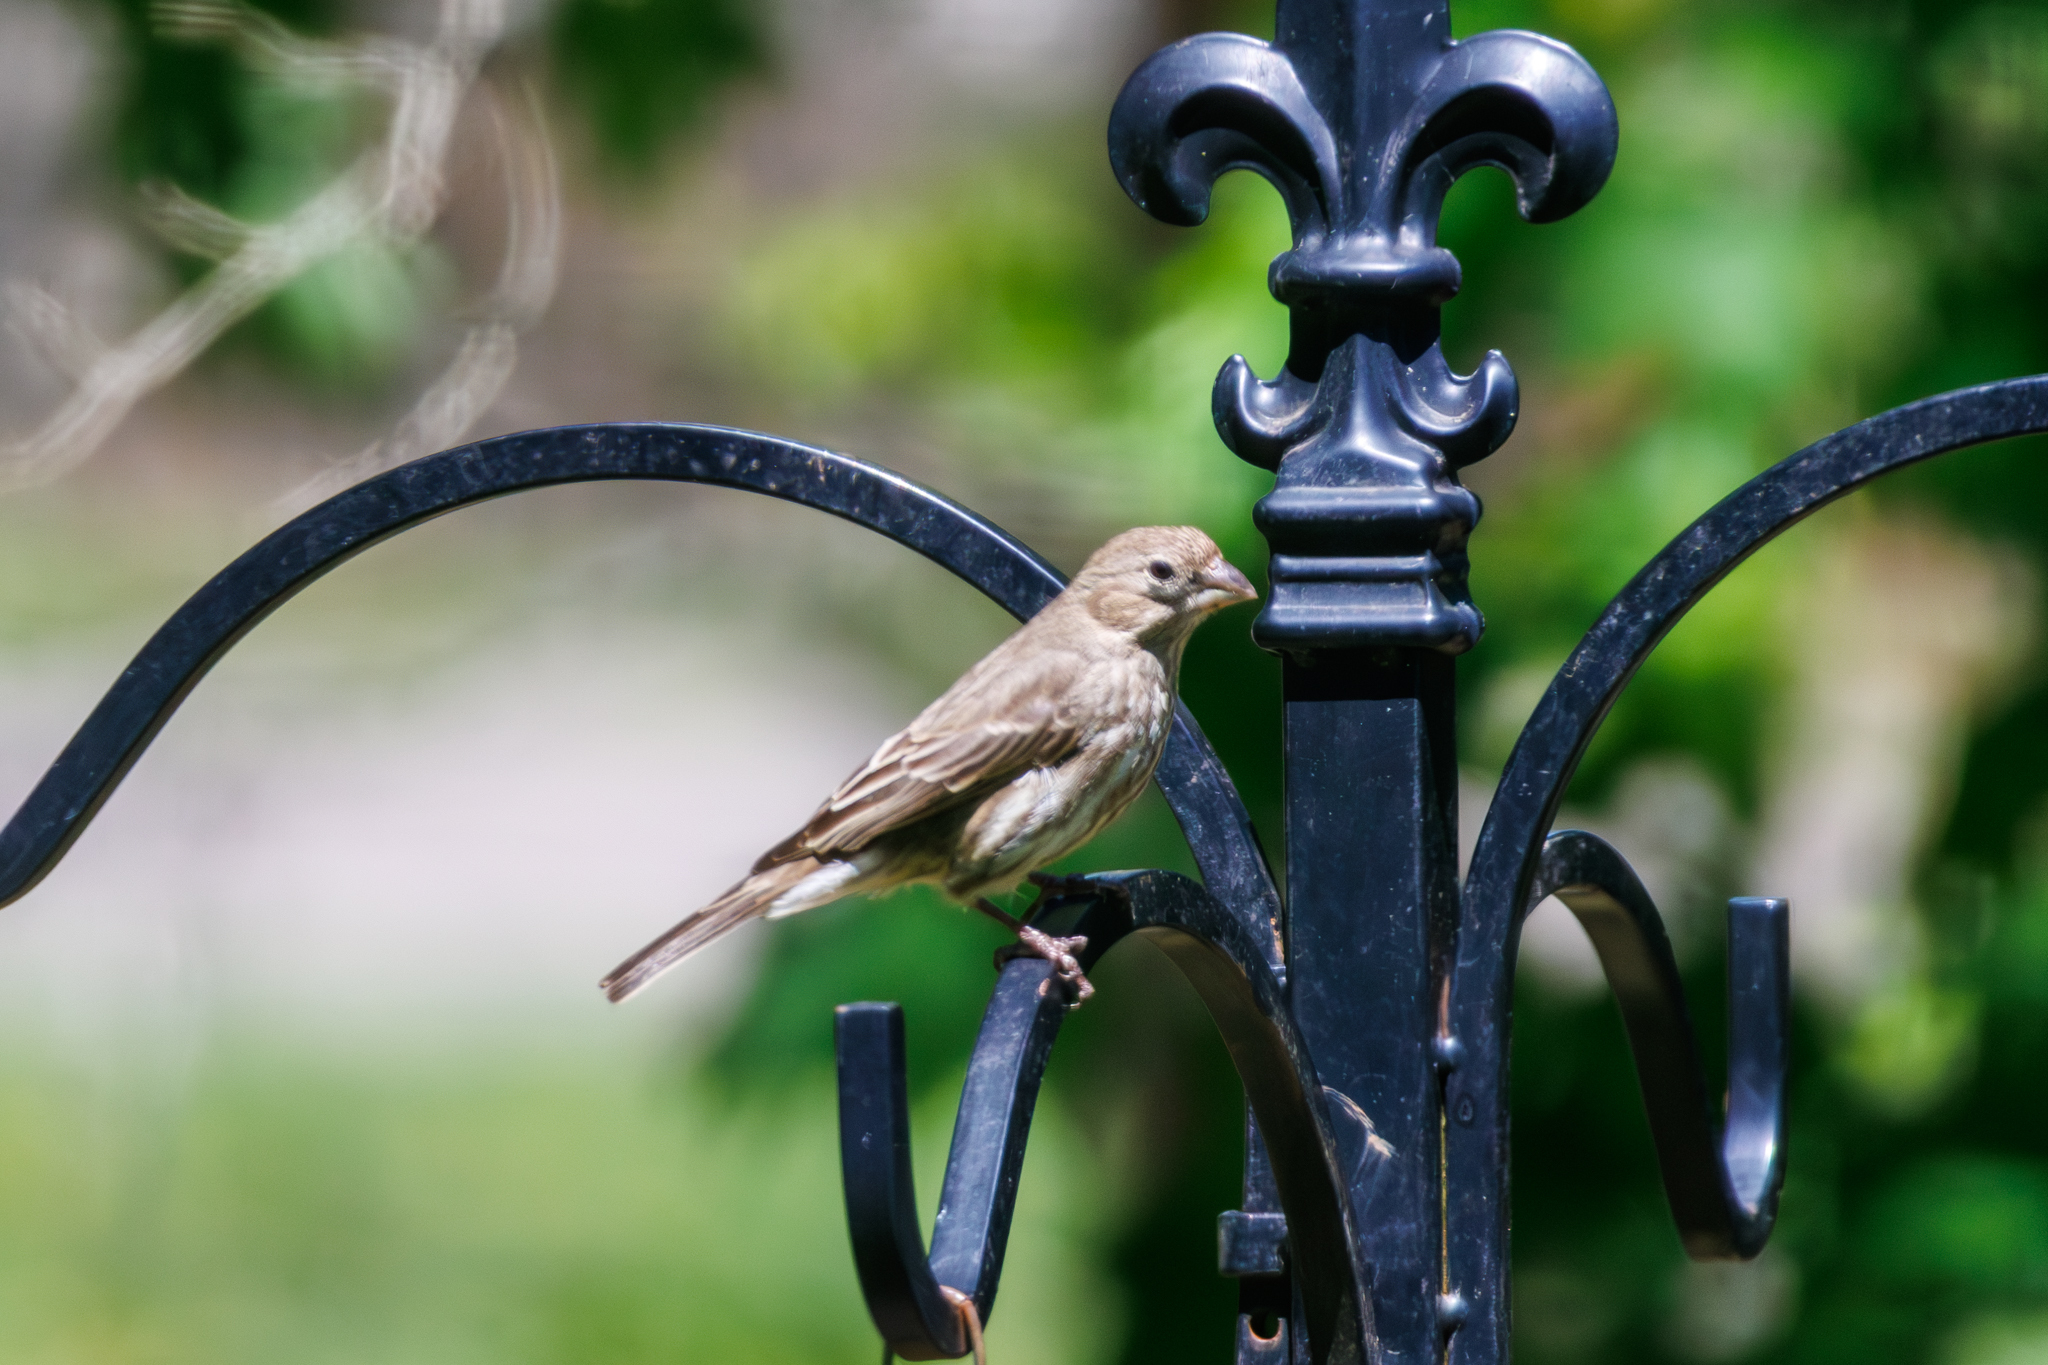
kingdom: Animalia
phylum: Chordata
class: Aves
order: Passeriformes
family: Fringillidae
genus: Haemorhous
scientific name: Haemorhous mexicanus
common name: House finch
